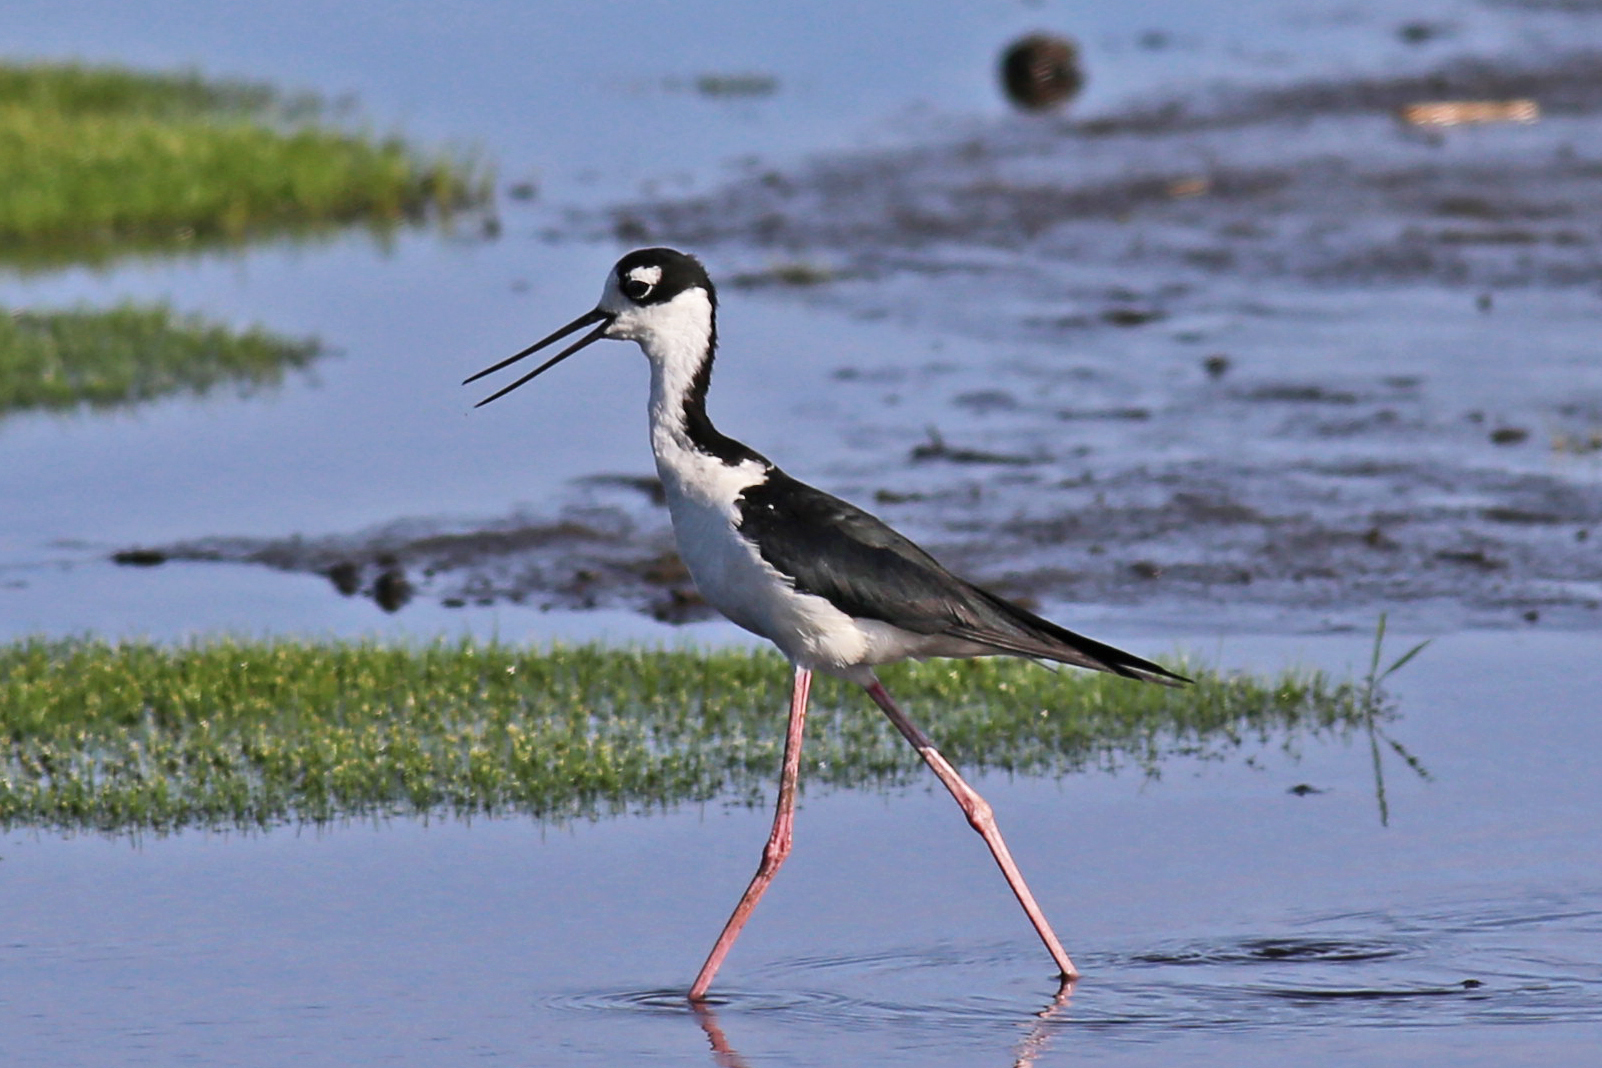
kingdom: Animalia
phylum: Chordata
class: Aves
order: Charadriiformes
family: Recurvirostridae
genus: Himantopus
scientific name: Himantopus mexicanus
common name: Black-necked stilt
